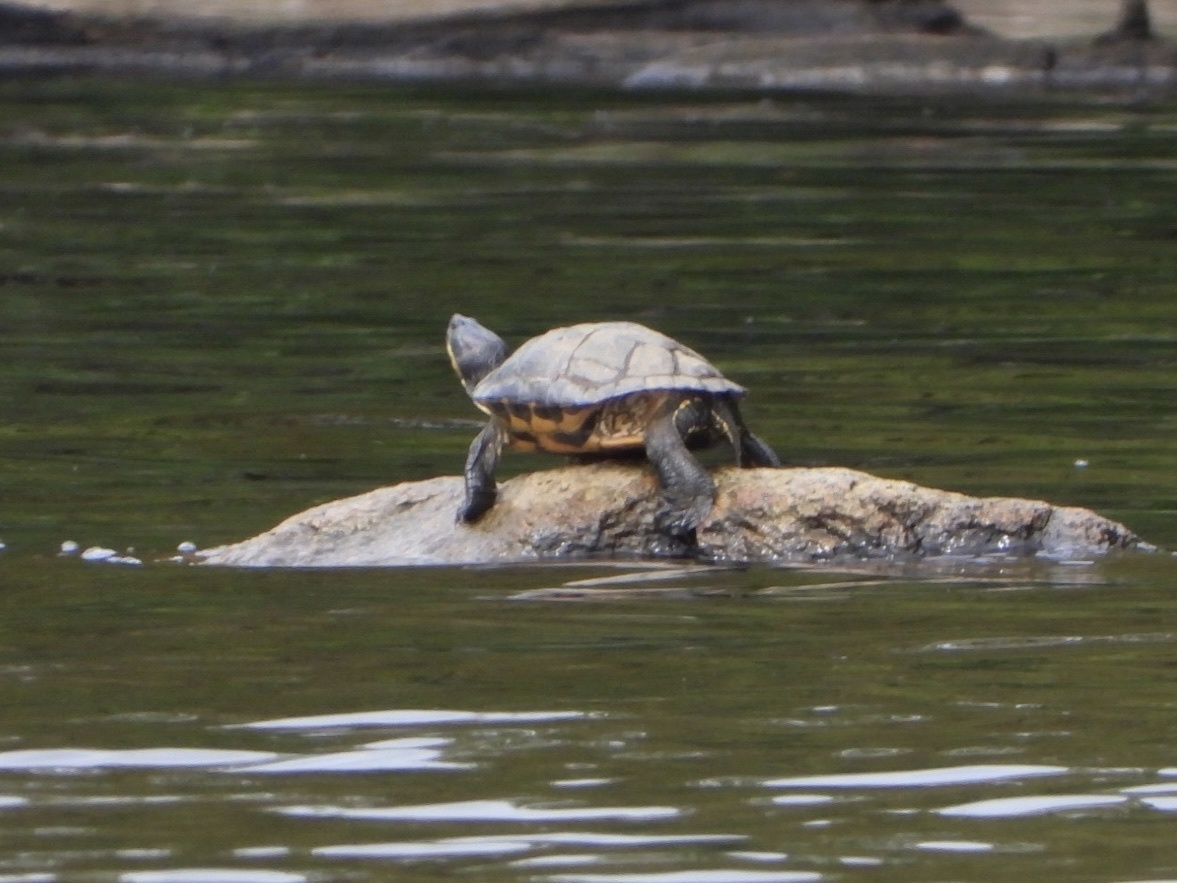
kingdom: Animalia
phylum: Chordata
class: Testudines
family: Emydidae
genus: Trachemys
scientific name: Trachemys scripta
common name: Slider
